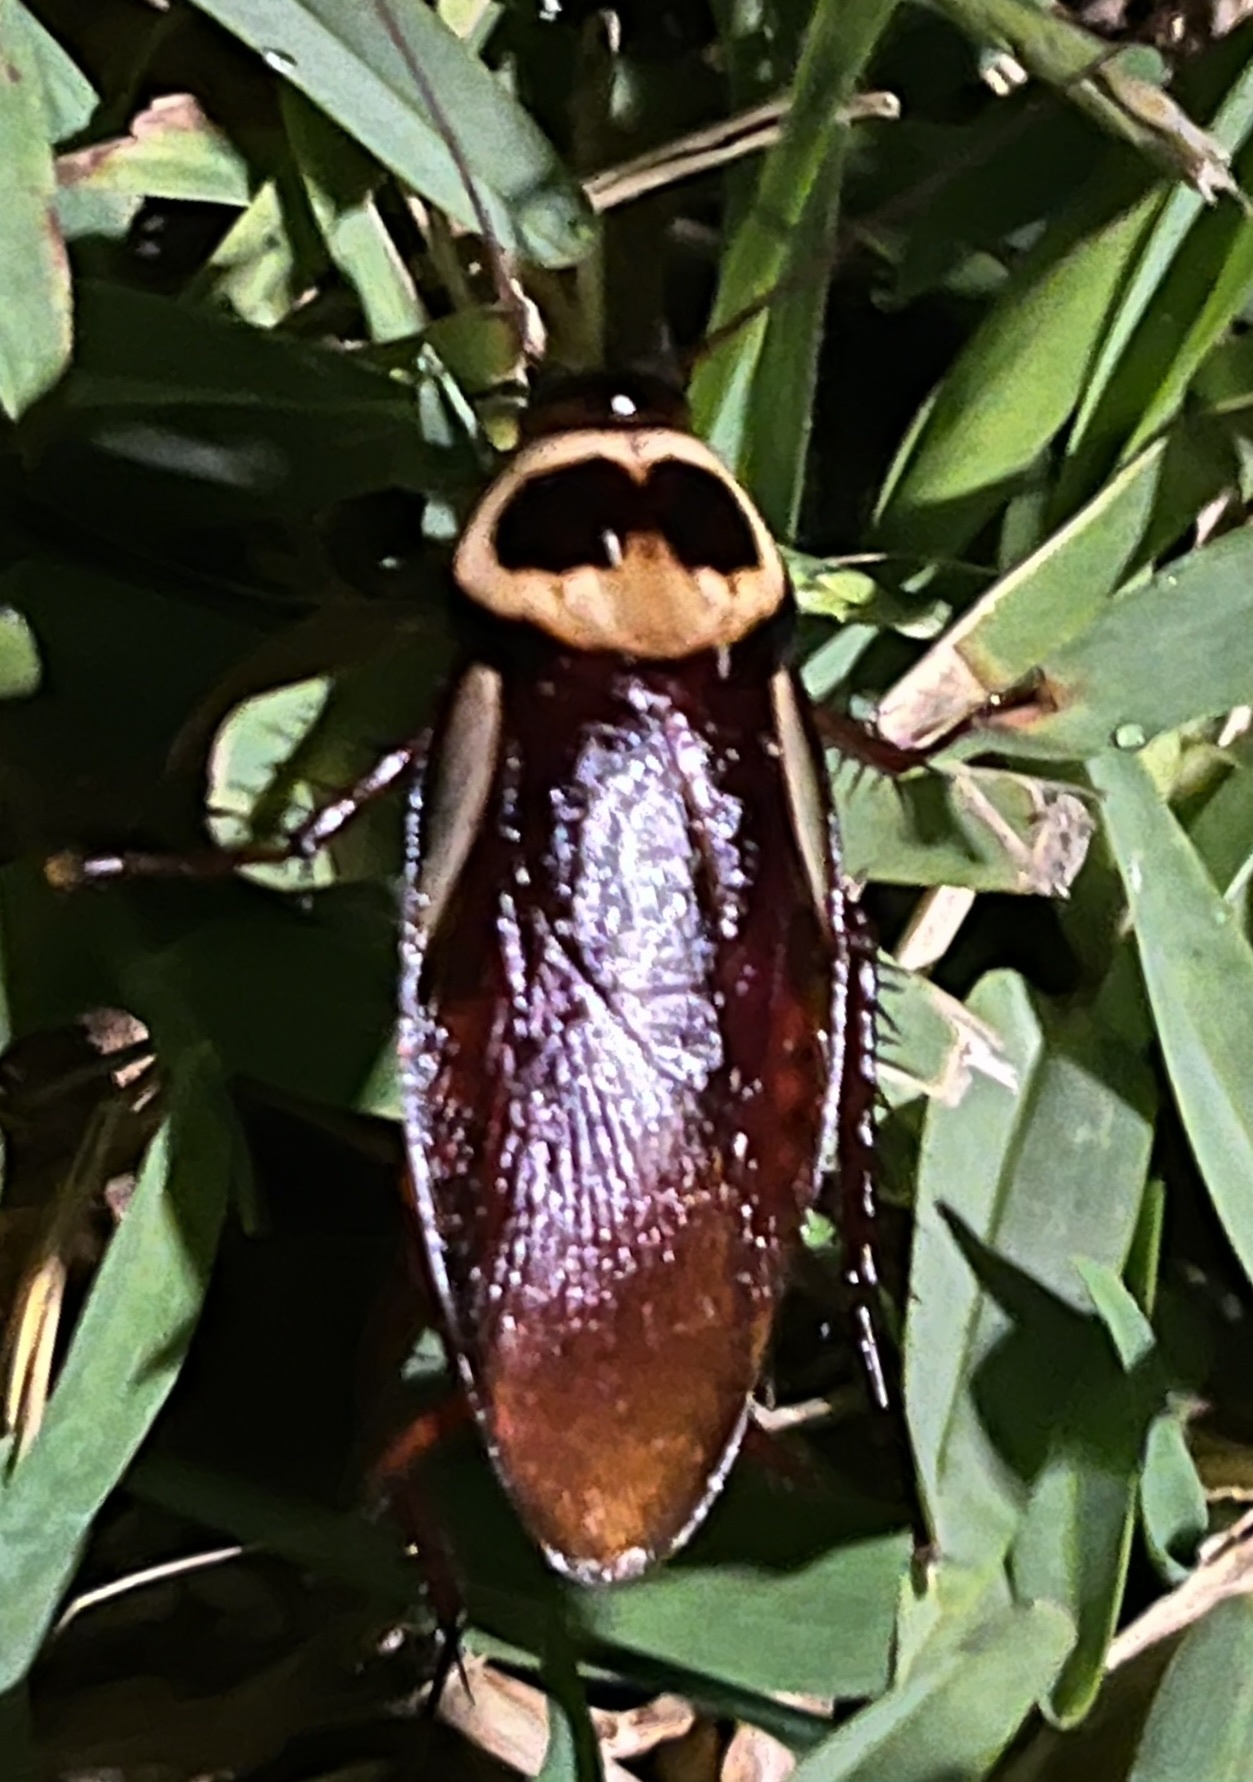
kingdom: Animalia
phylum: Arthropoda
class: Insecta
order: Blattodea
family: Blattidae
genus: Periplaneta
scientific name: Periplaneta australasiae
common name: Australian cockroach
